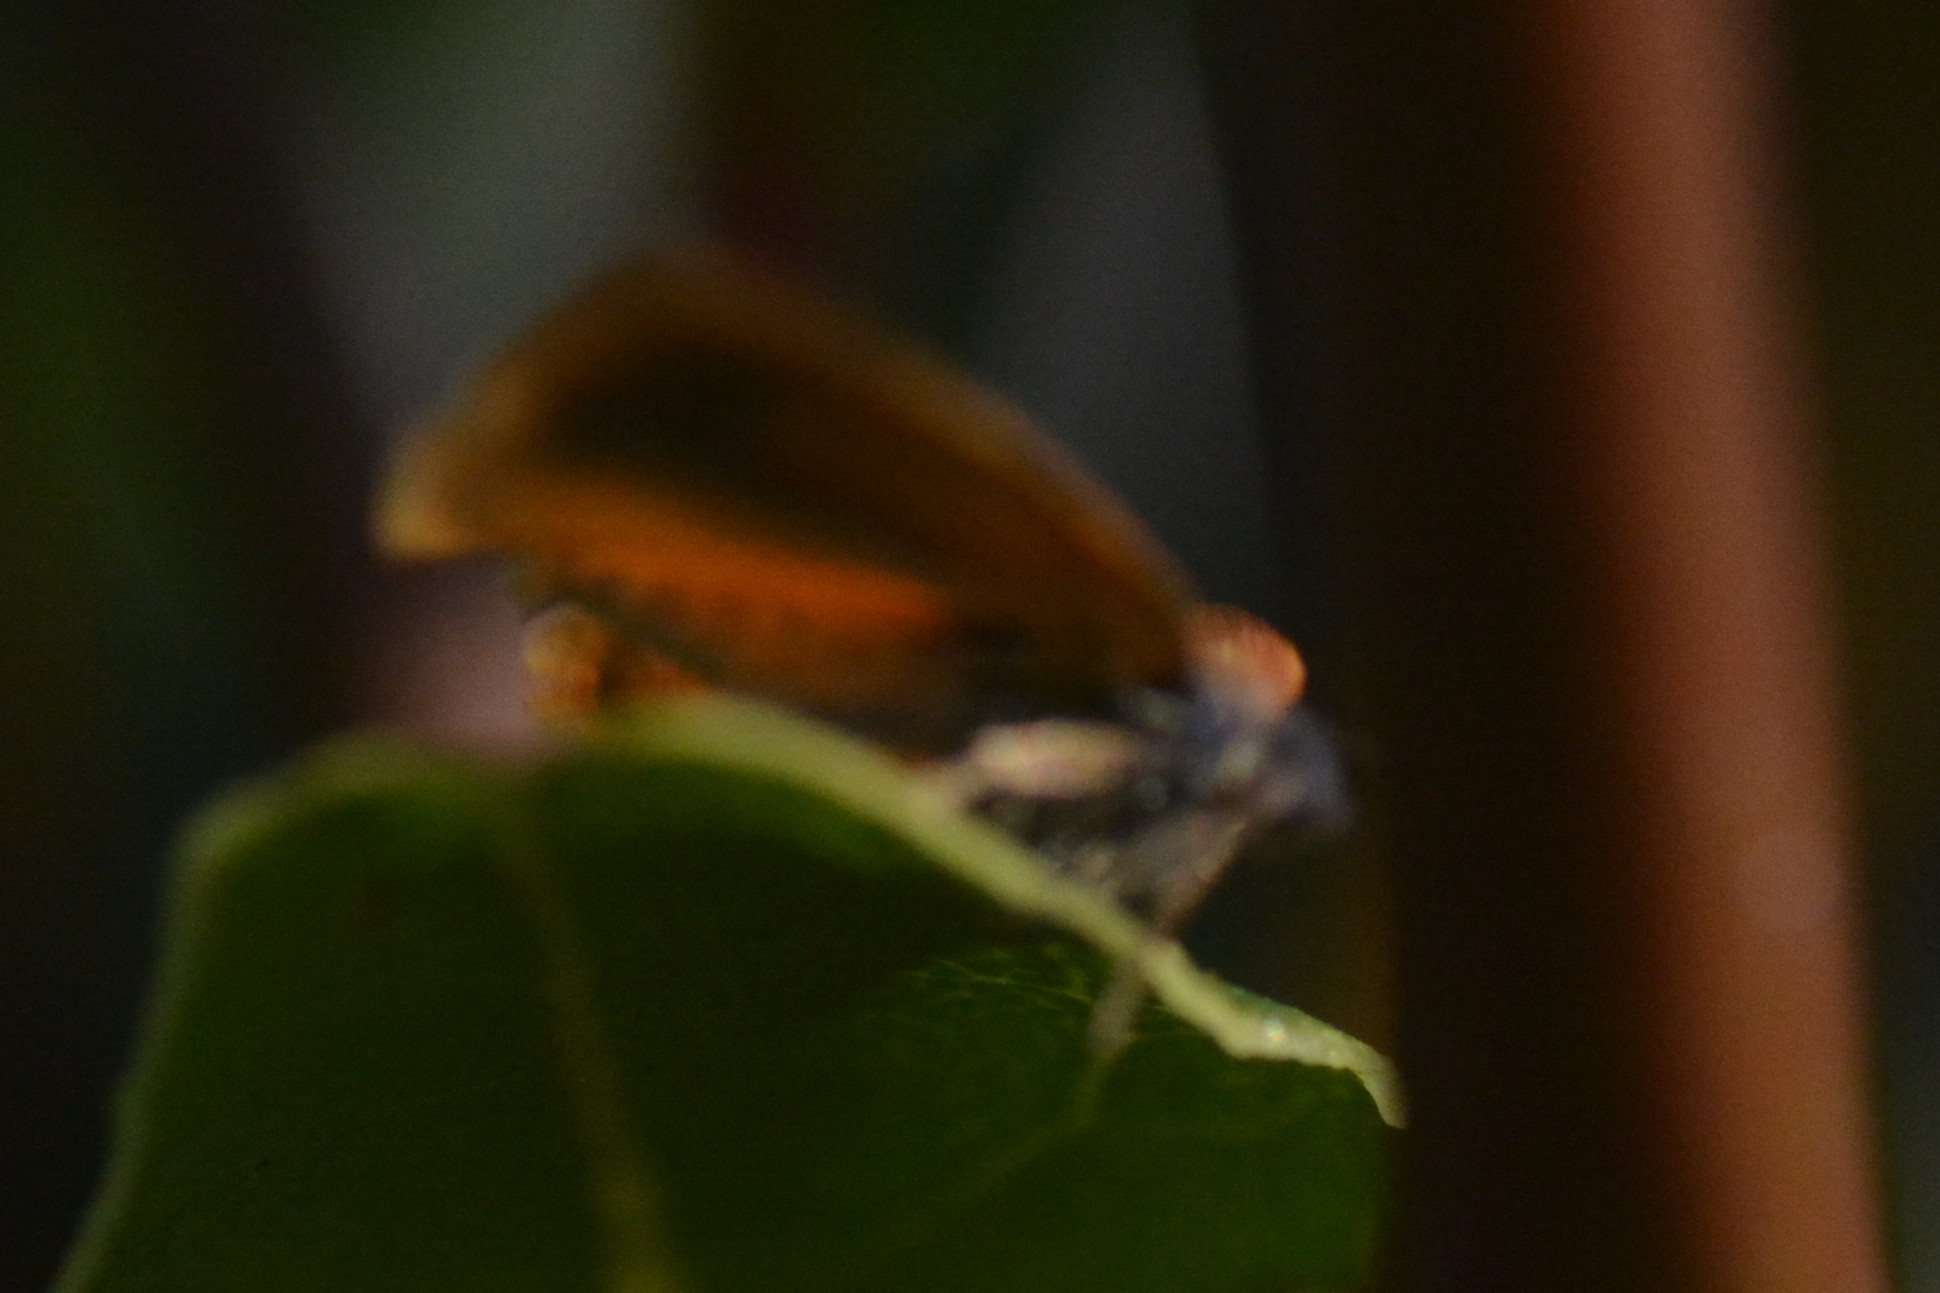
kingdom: Animalia
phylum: Arthropoda
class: Insecta
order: Lepidoptera
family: Tortricidae
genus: Cacoecimorpha
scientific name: Cacoecimorpha pronubana
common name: Carnation tortrix
